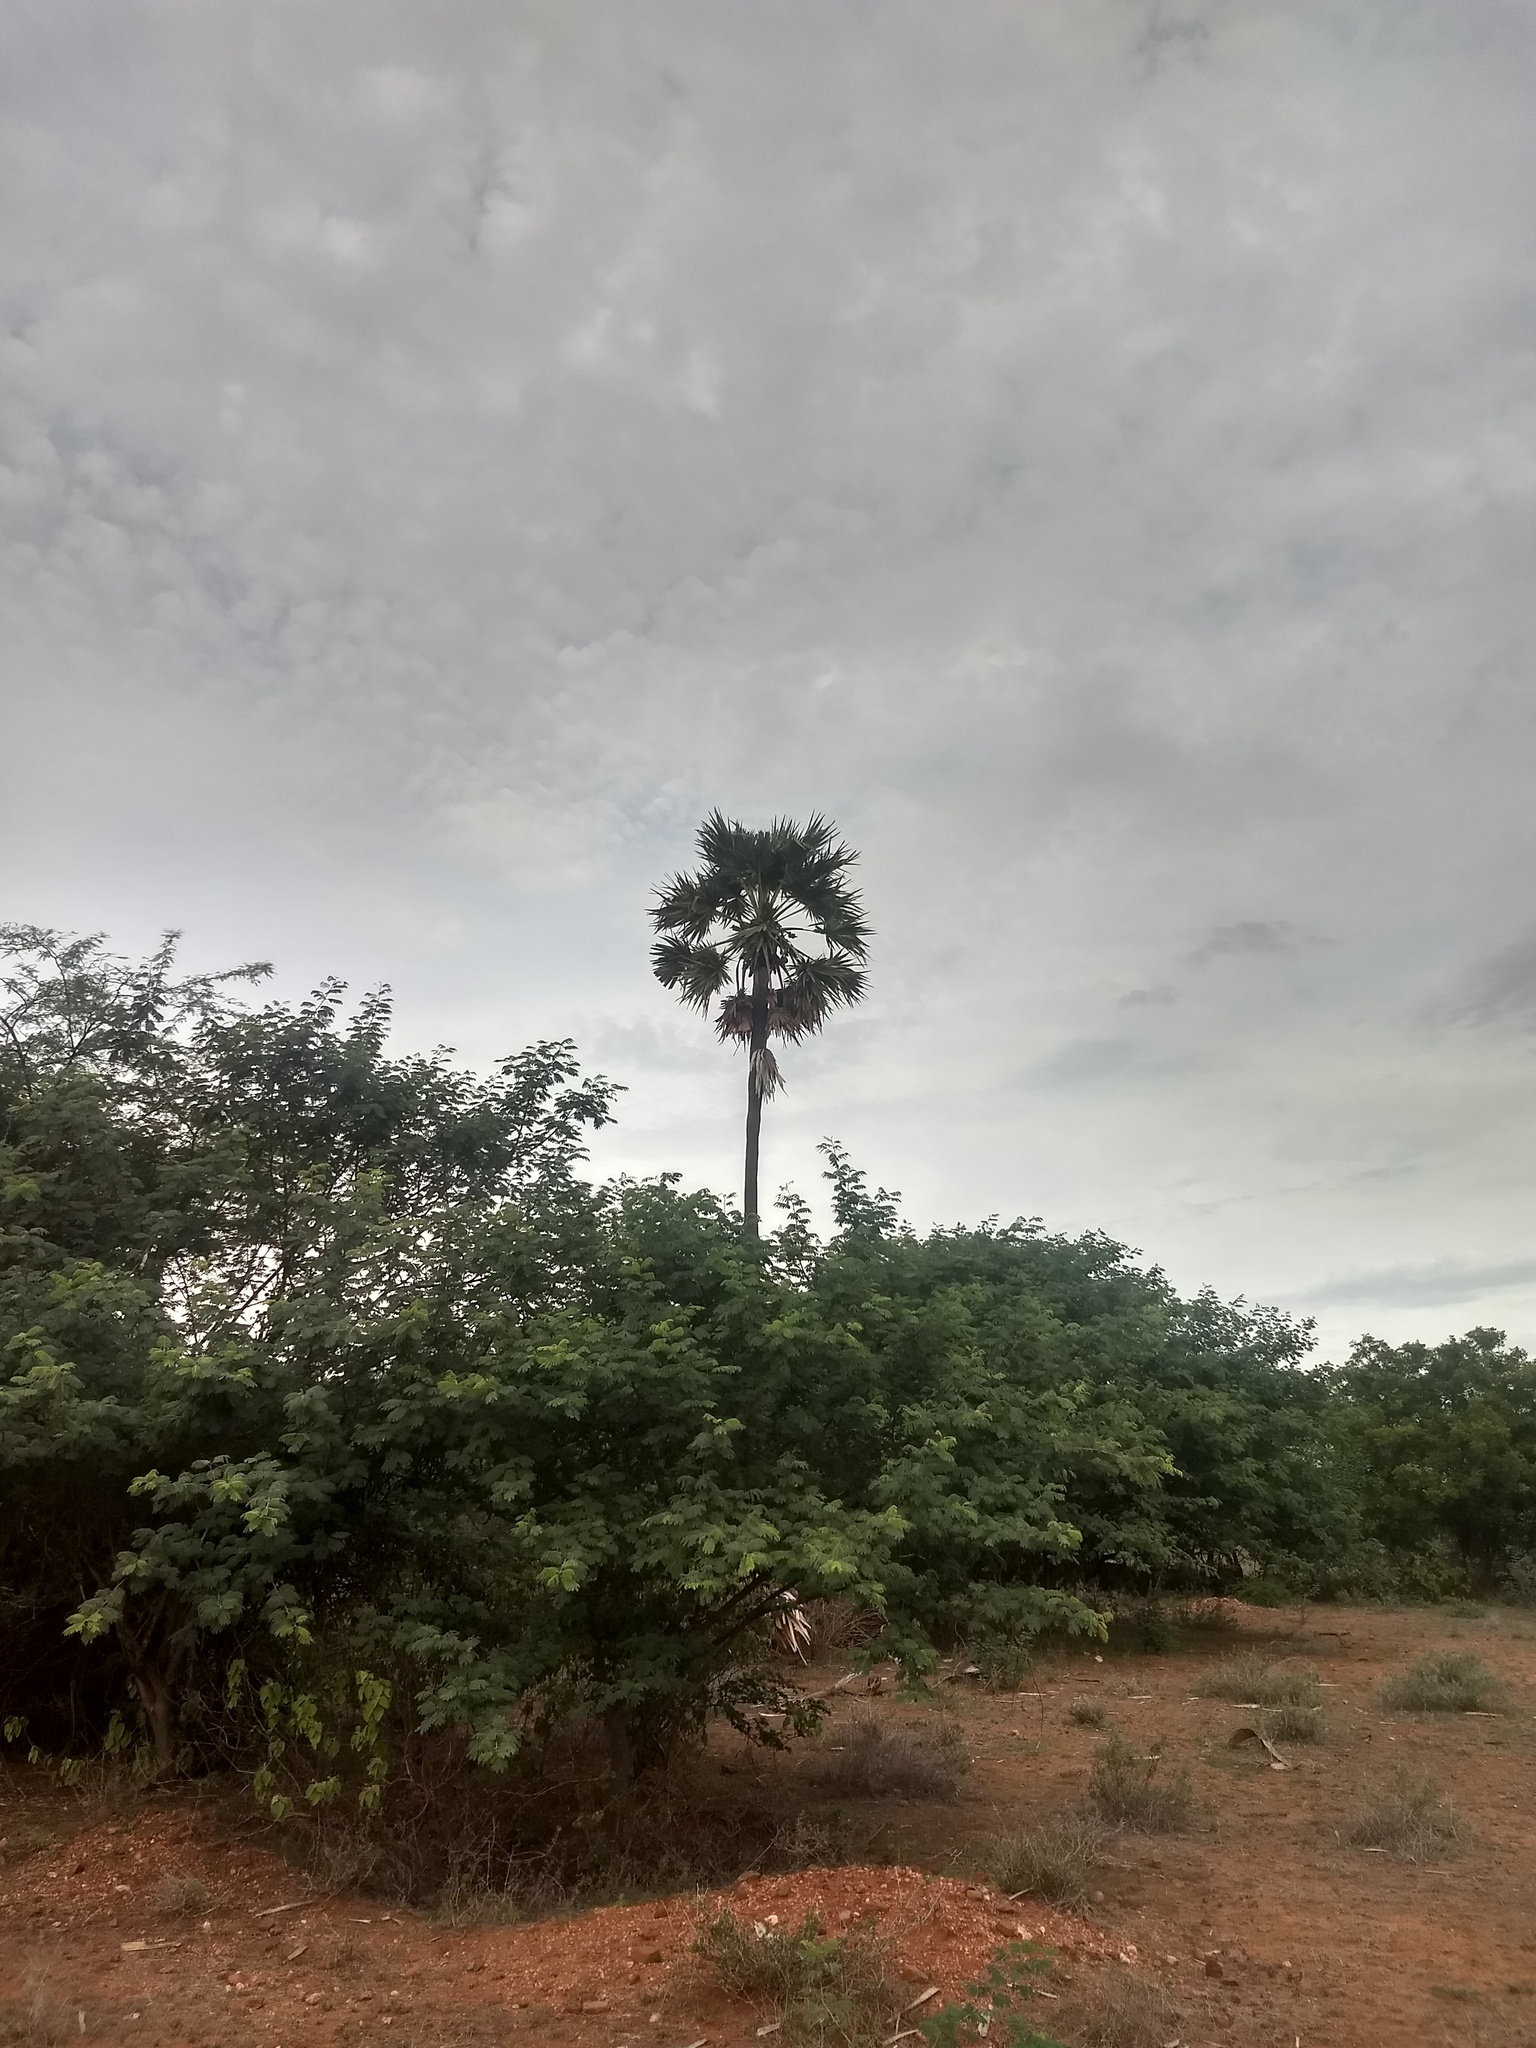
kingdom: Plantae
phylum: Tracheophyta
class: Liliopsida
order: Arecales
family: Arecaceae
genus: Borassus
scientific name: Borassus flabellifer
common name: Palmyra palm
